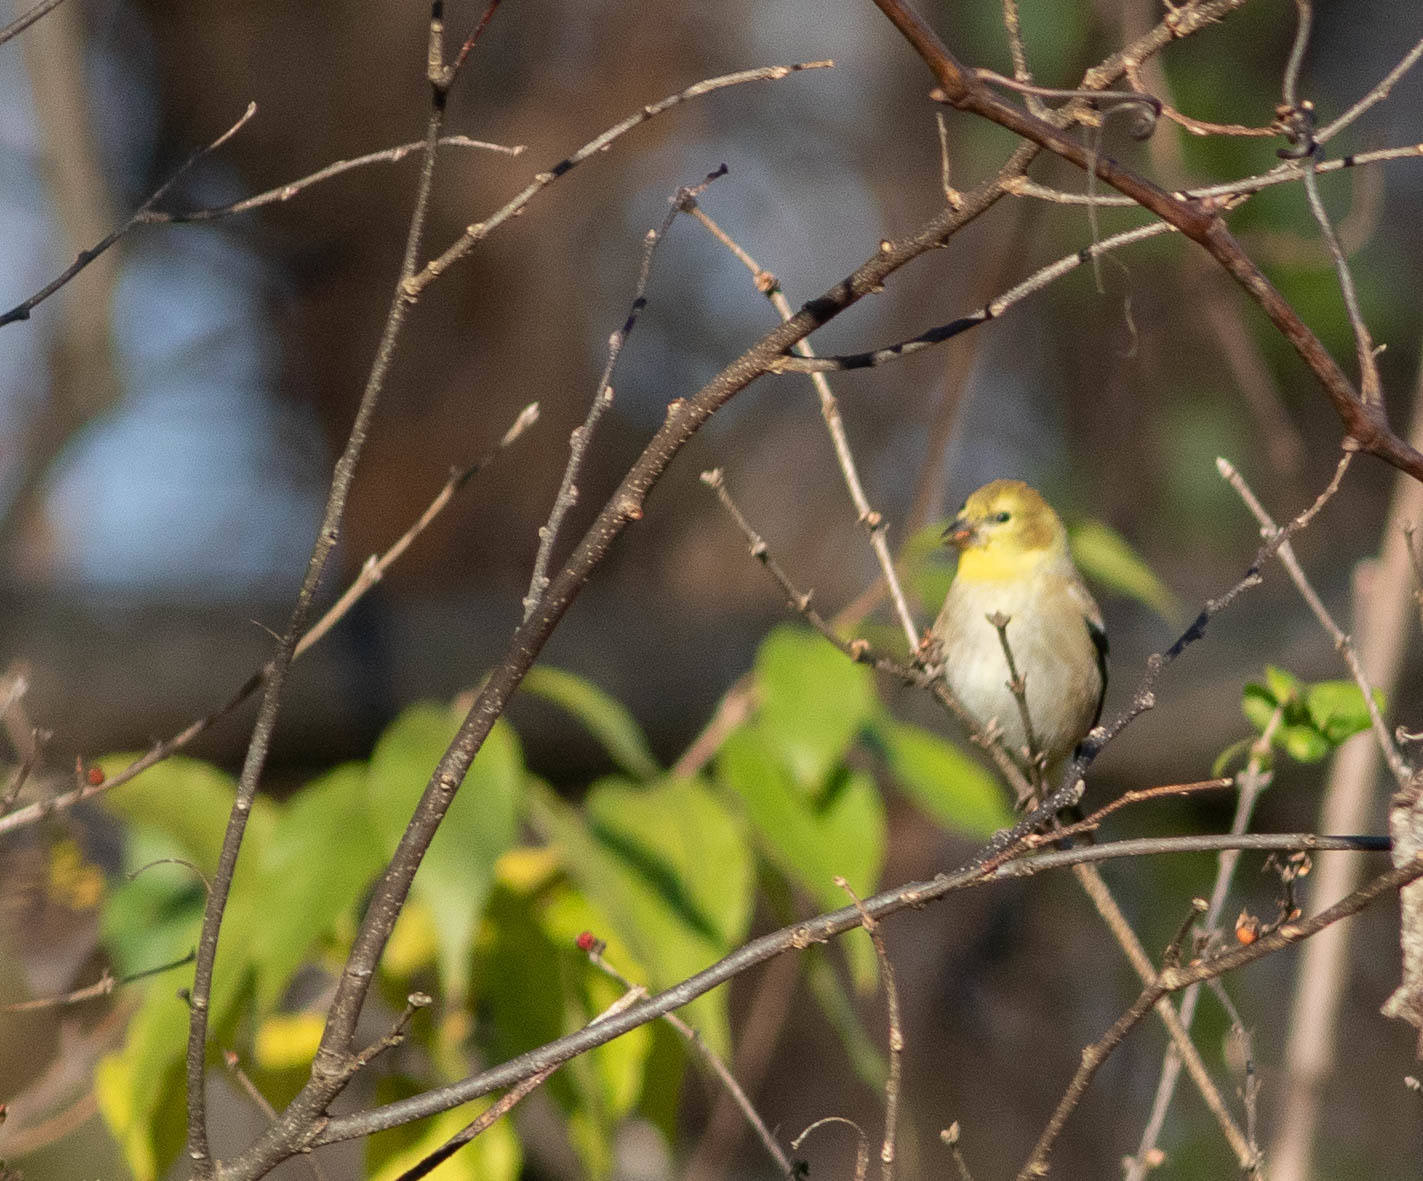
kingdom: Animalia
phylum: Chordata
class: Aves
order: Passeriformes
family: Fringillidae
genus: Spinus
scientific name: Spinus tristis
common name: American goldfinch
